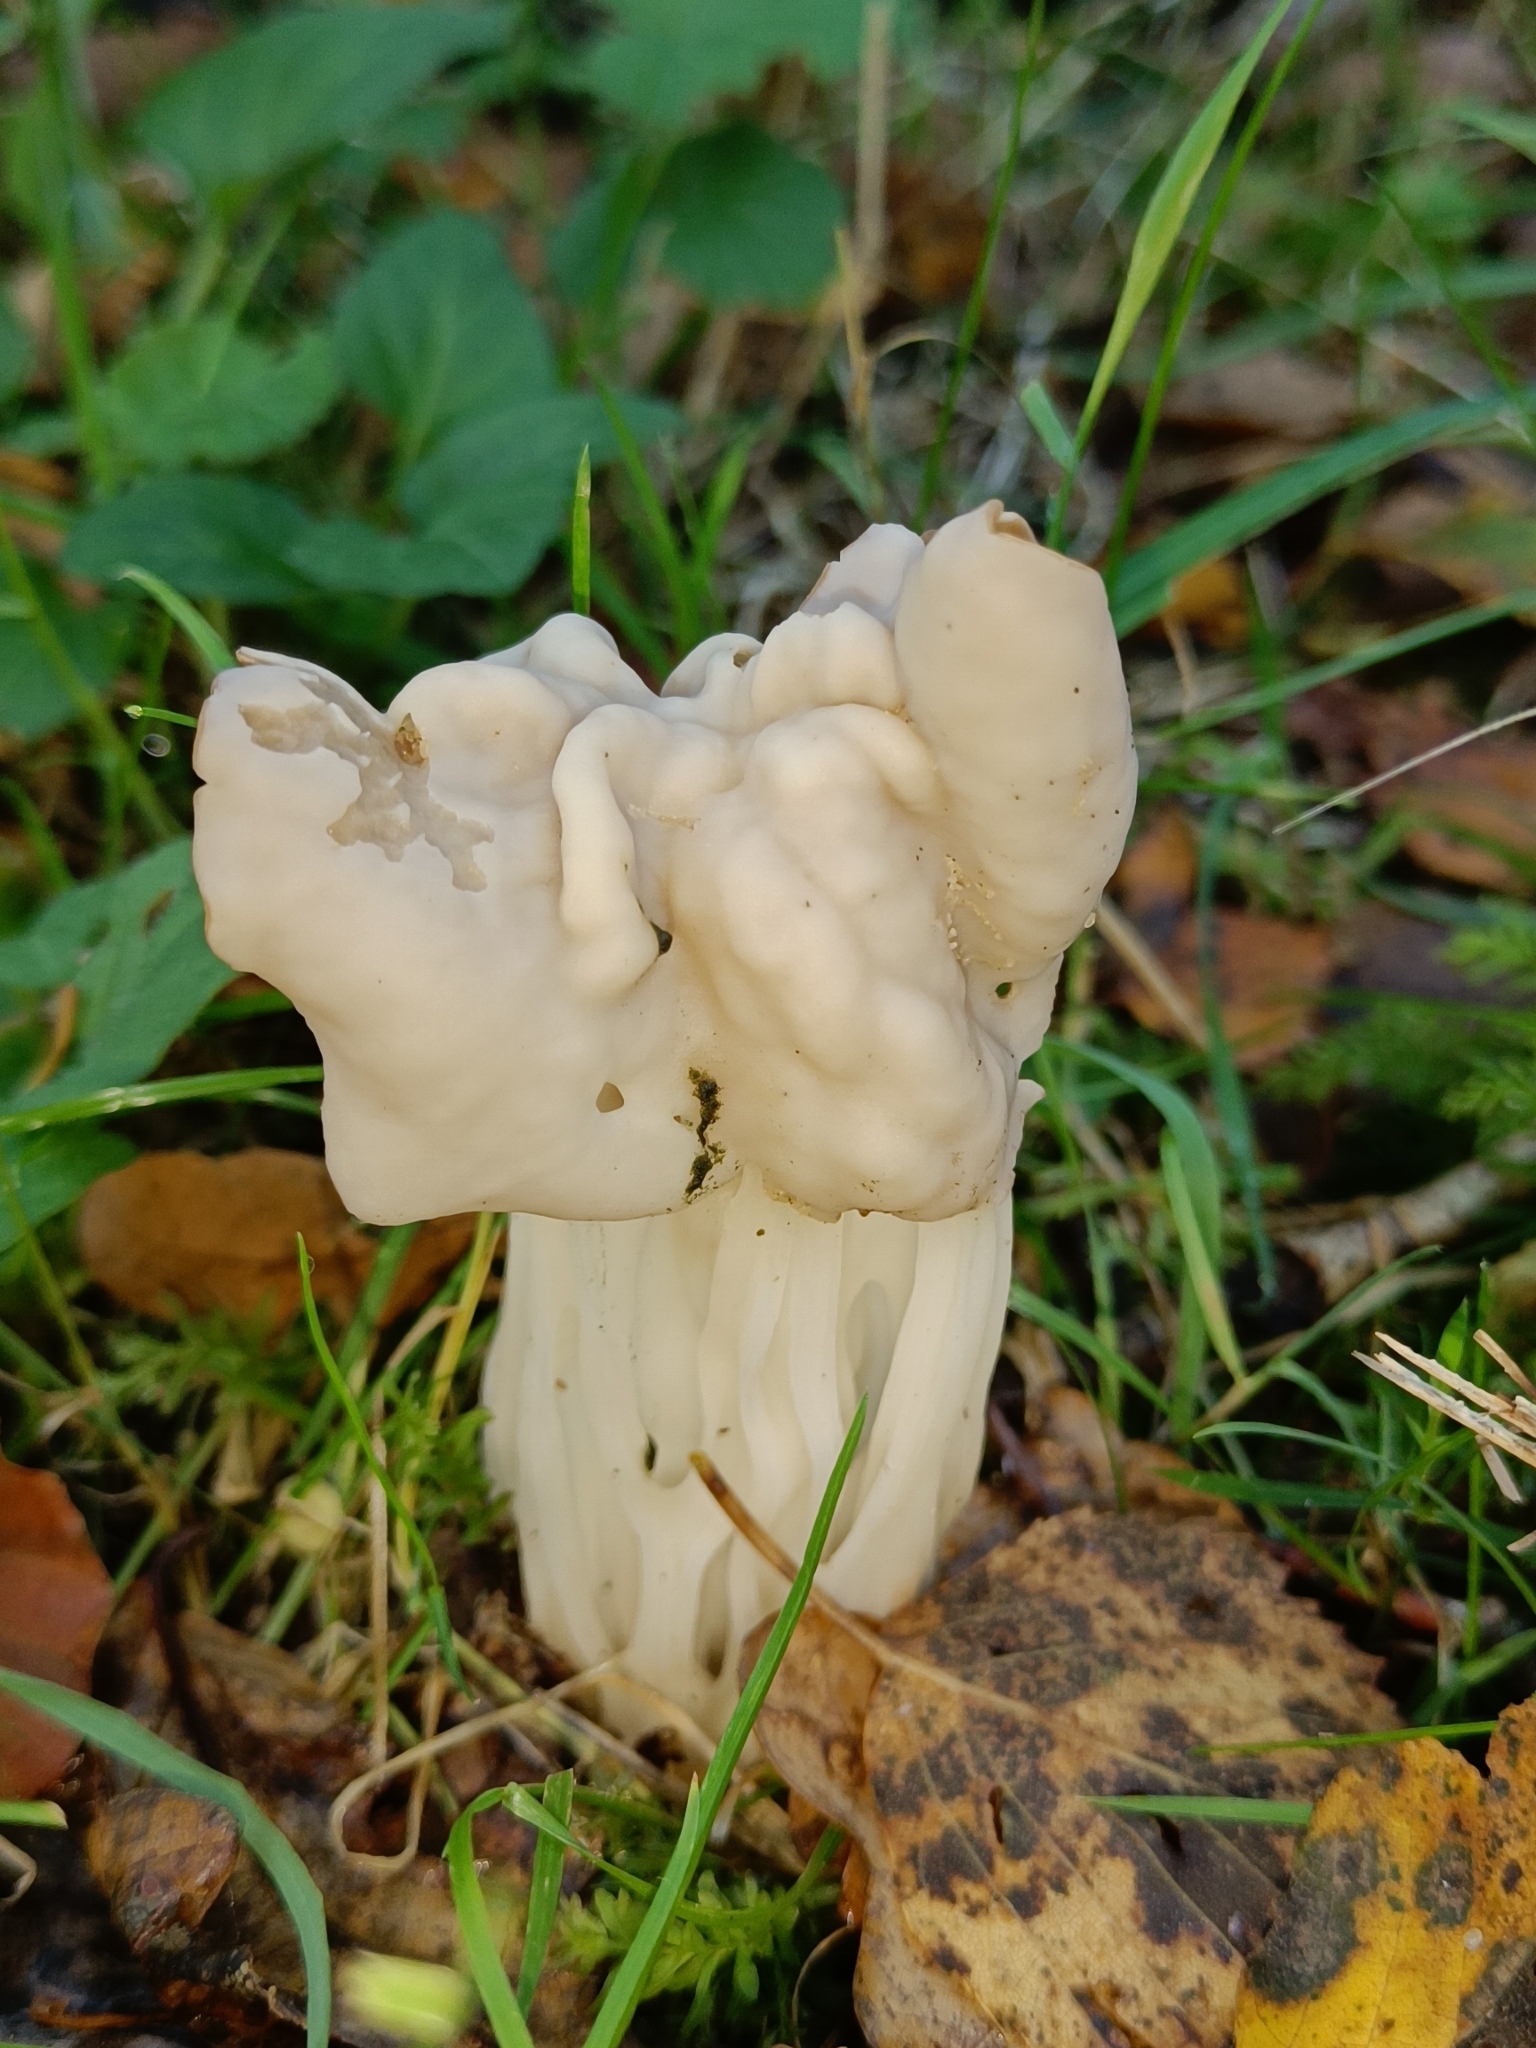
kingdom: Fungi
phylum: Ascomycota
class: Pezizomycetes
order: Pezizales
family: Helvellaceae
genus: Helvella
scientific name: Helvella crispa
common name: White saddle
